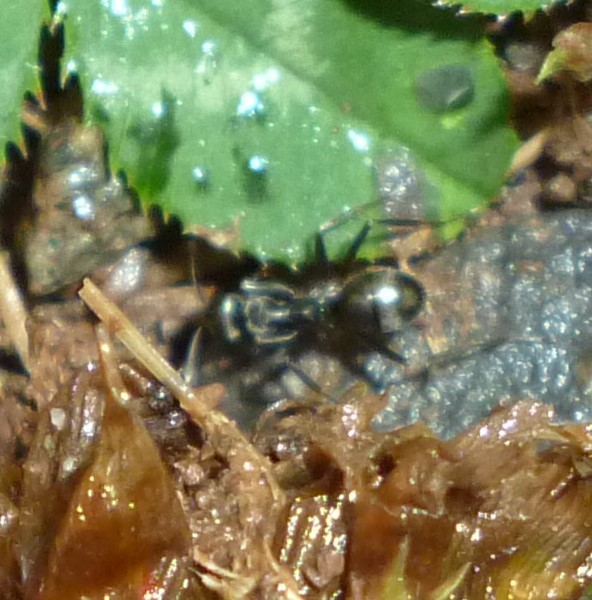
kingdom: Animalia
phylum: Arthropoda
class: Insecta
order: Hymenoptera
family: Formicidae
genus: Formica
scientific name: Formica
